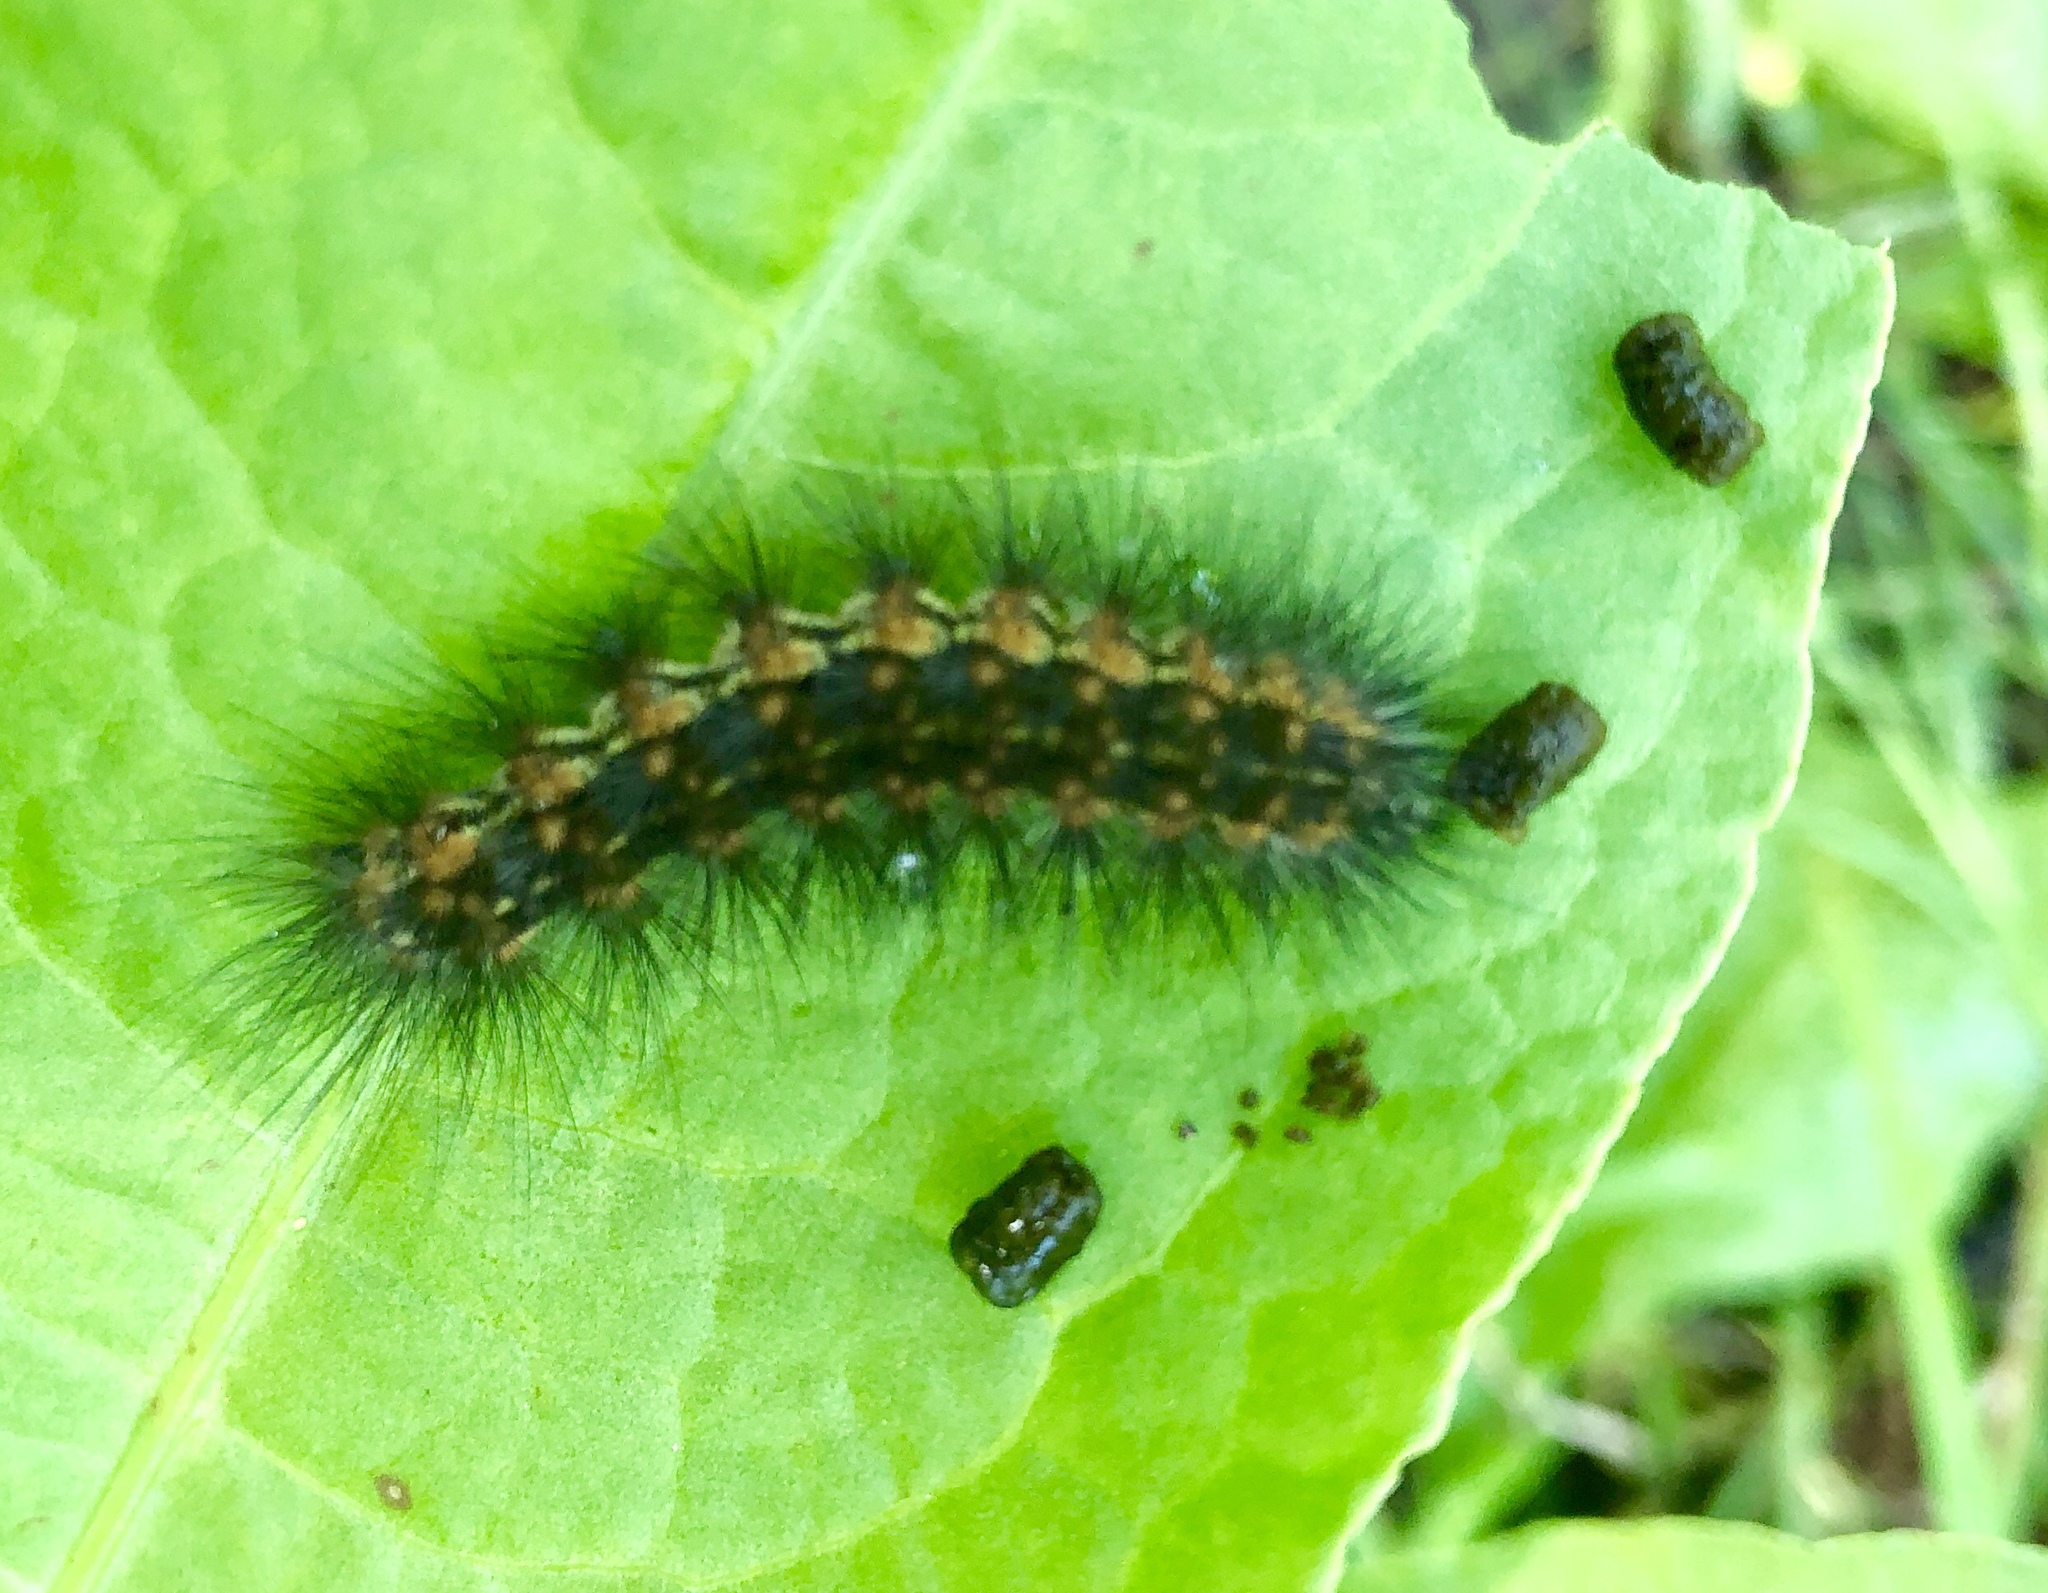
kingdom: Animalia
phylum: Arthropoda
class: Insecta
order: Lepidoptera
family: Erebidae
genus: Estigmene
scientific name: Estigmene acrea
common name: Salt marsh moth
